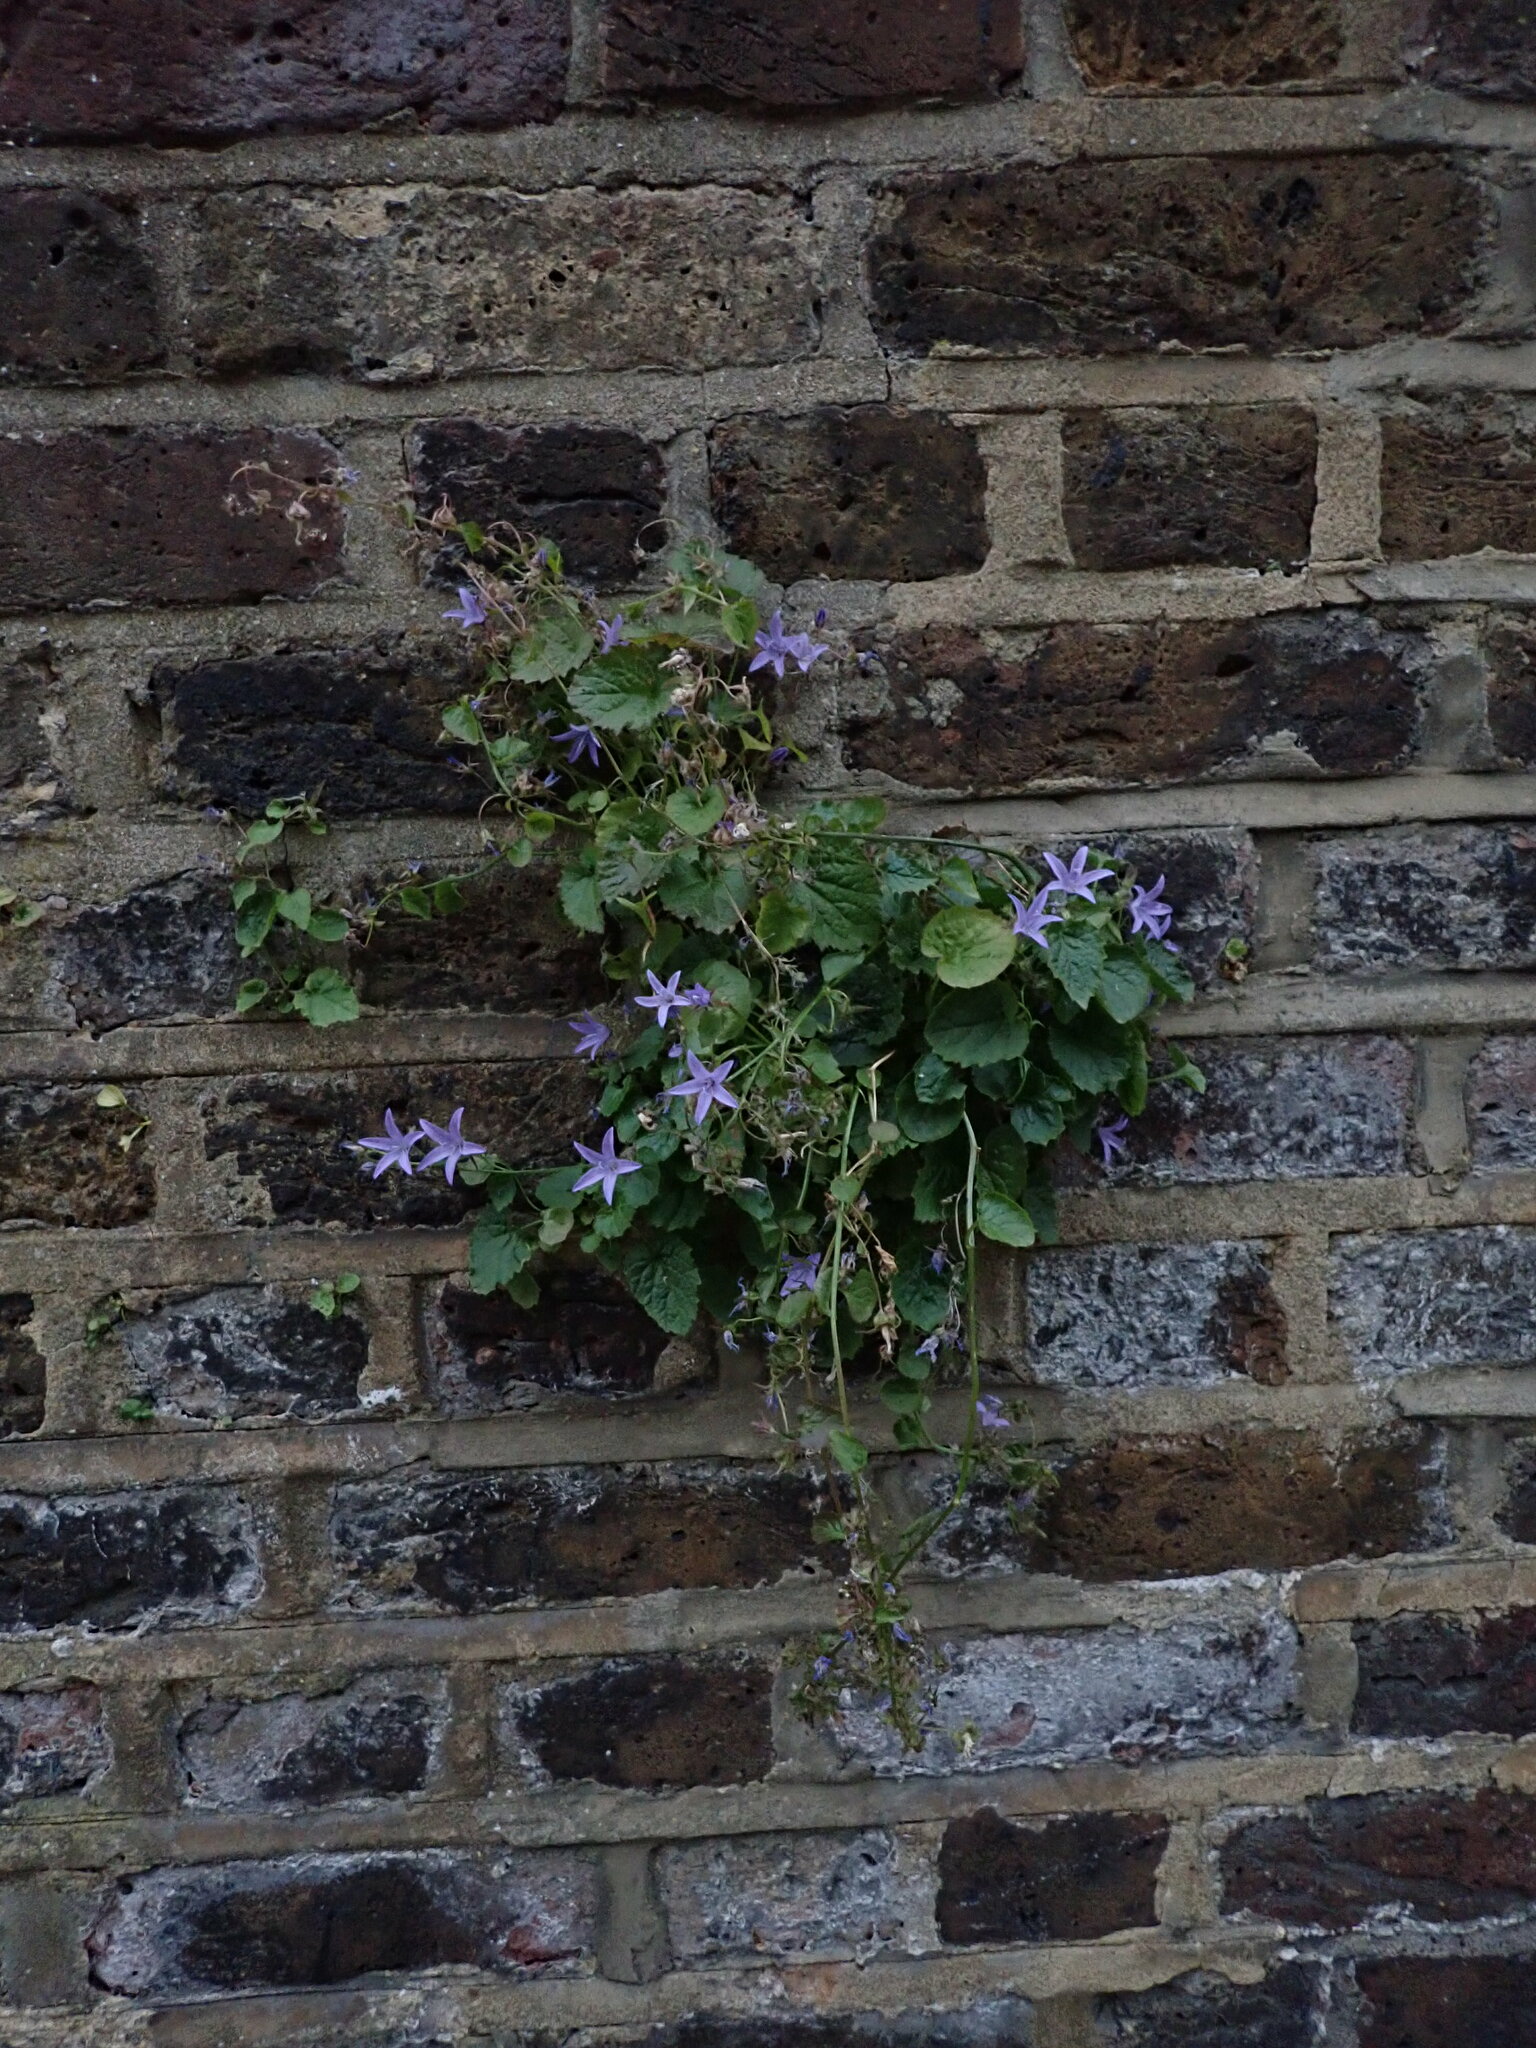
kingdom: Plantae
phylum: Tracheophyta
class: Magnoliopsida
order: Asterales
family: Campanulaceae
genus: Campanula
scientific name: Campanula poscharskyana
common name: Trailing bellflower
